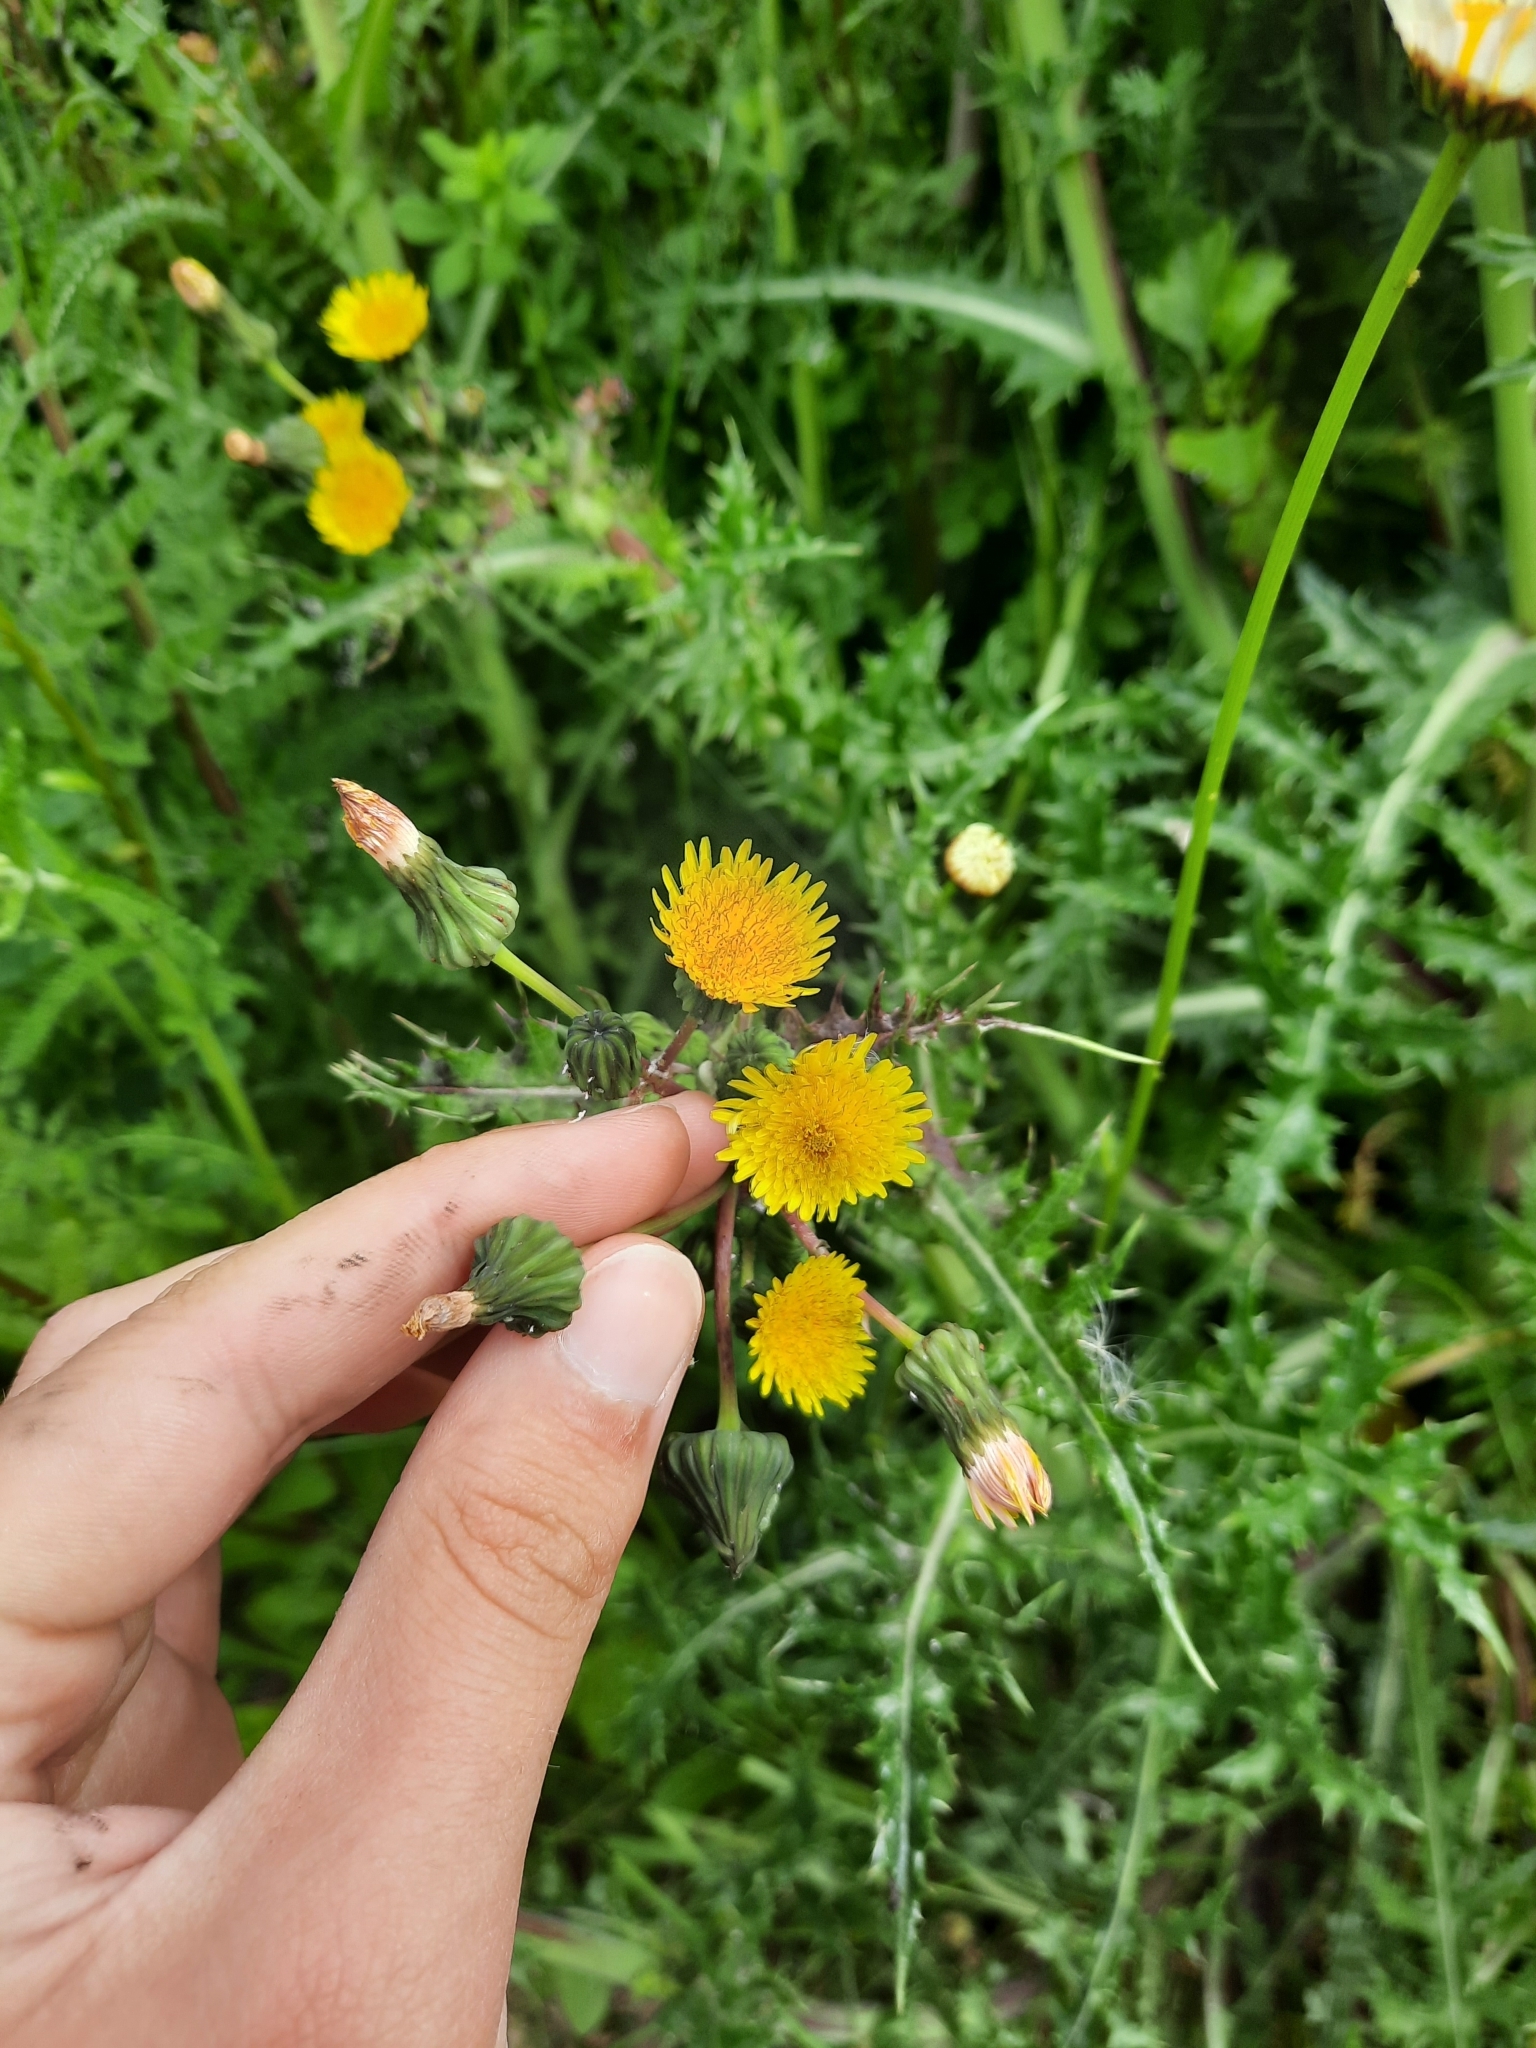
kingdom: Plantae
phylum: Tracheophyta
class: Magnoliopsida
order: Asterales
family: Asteraceae
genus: Sonchus
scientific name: Sonchus asper
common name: Prickly sow-thistle
